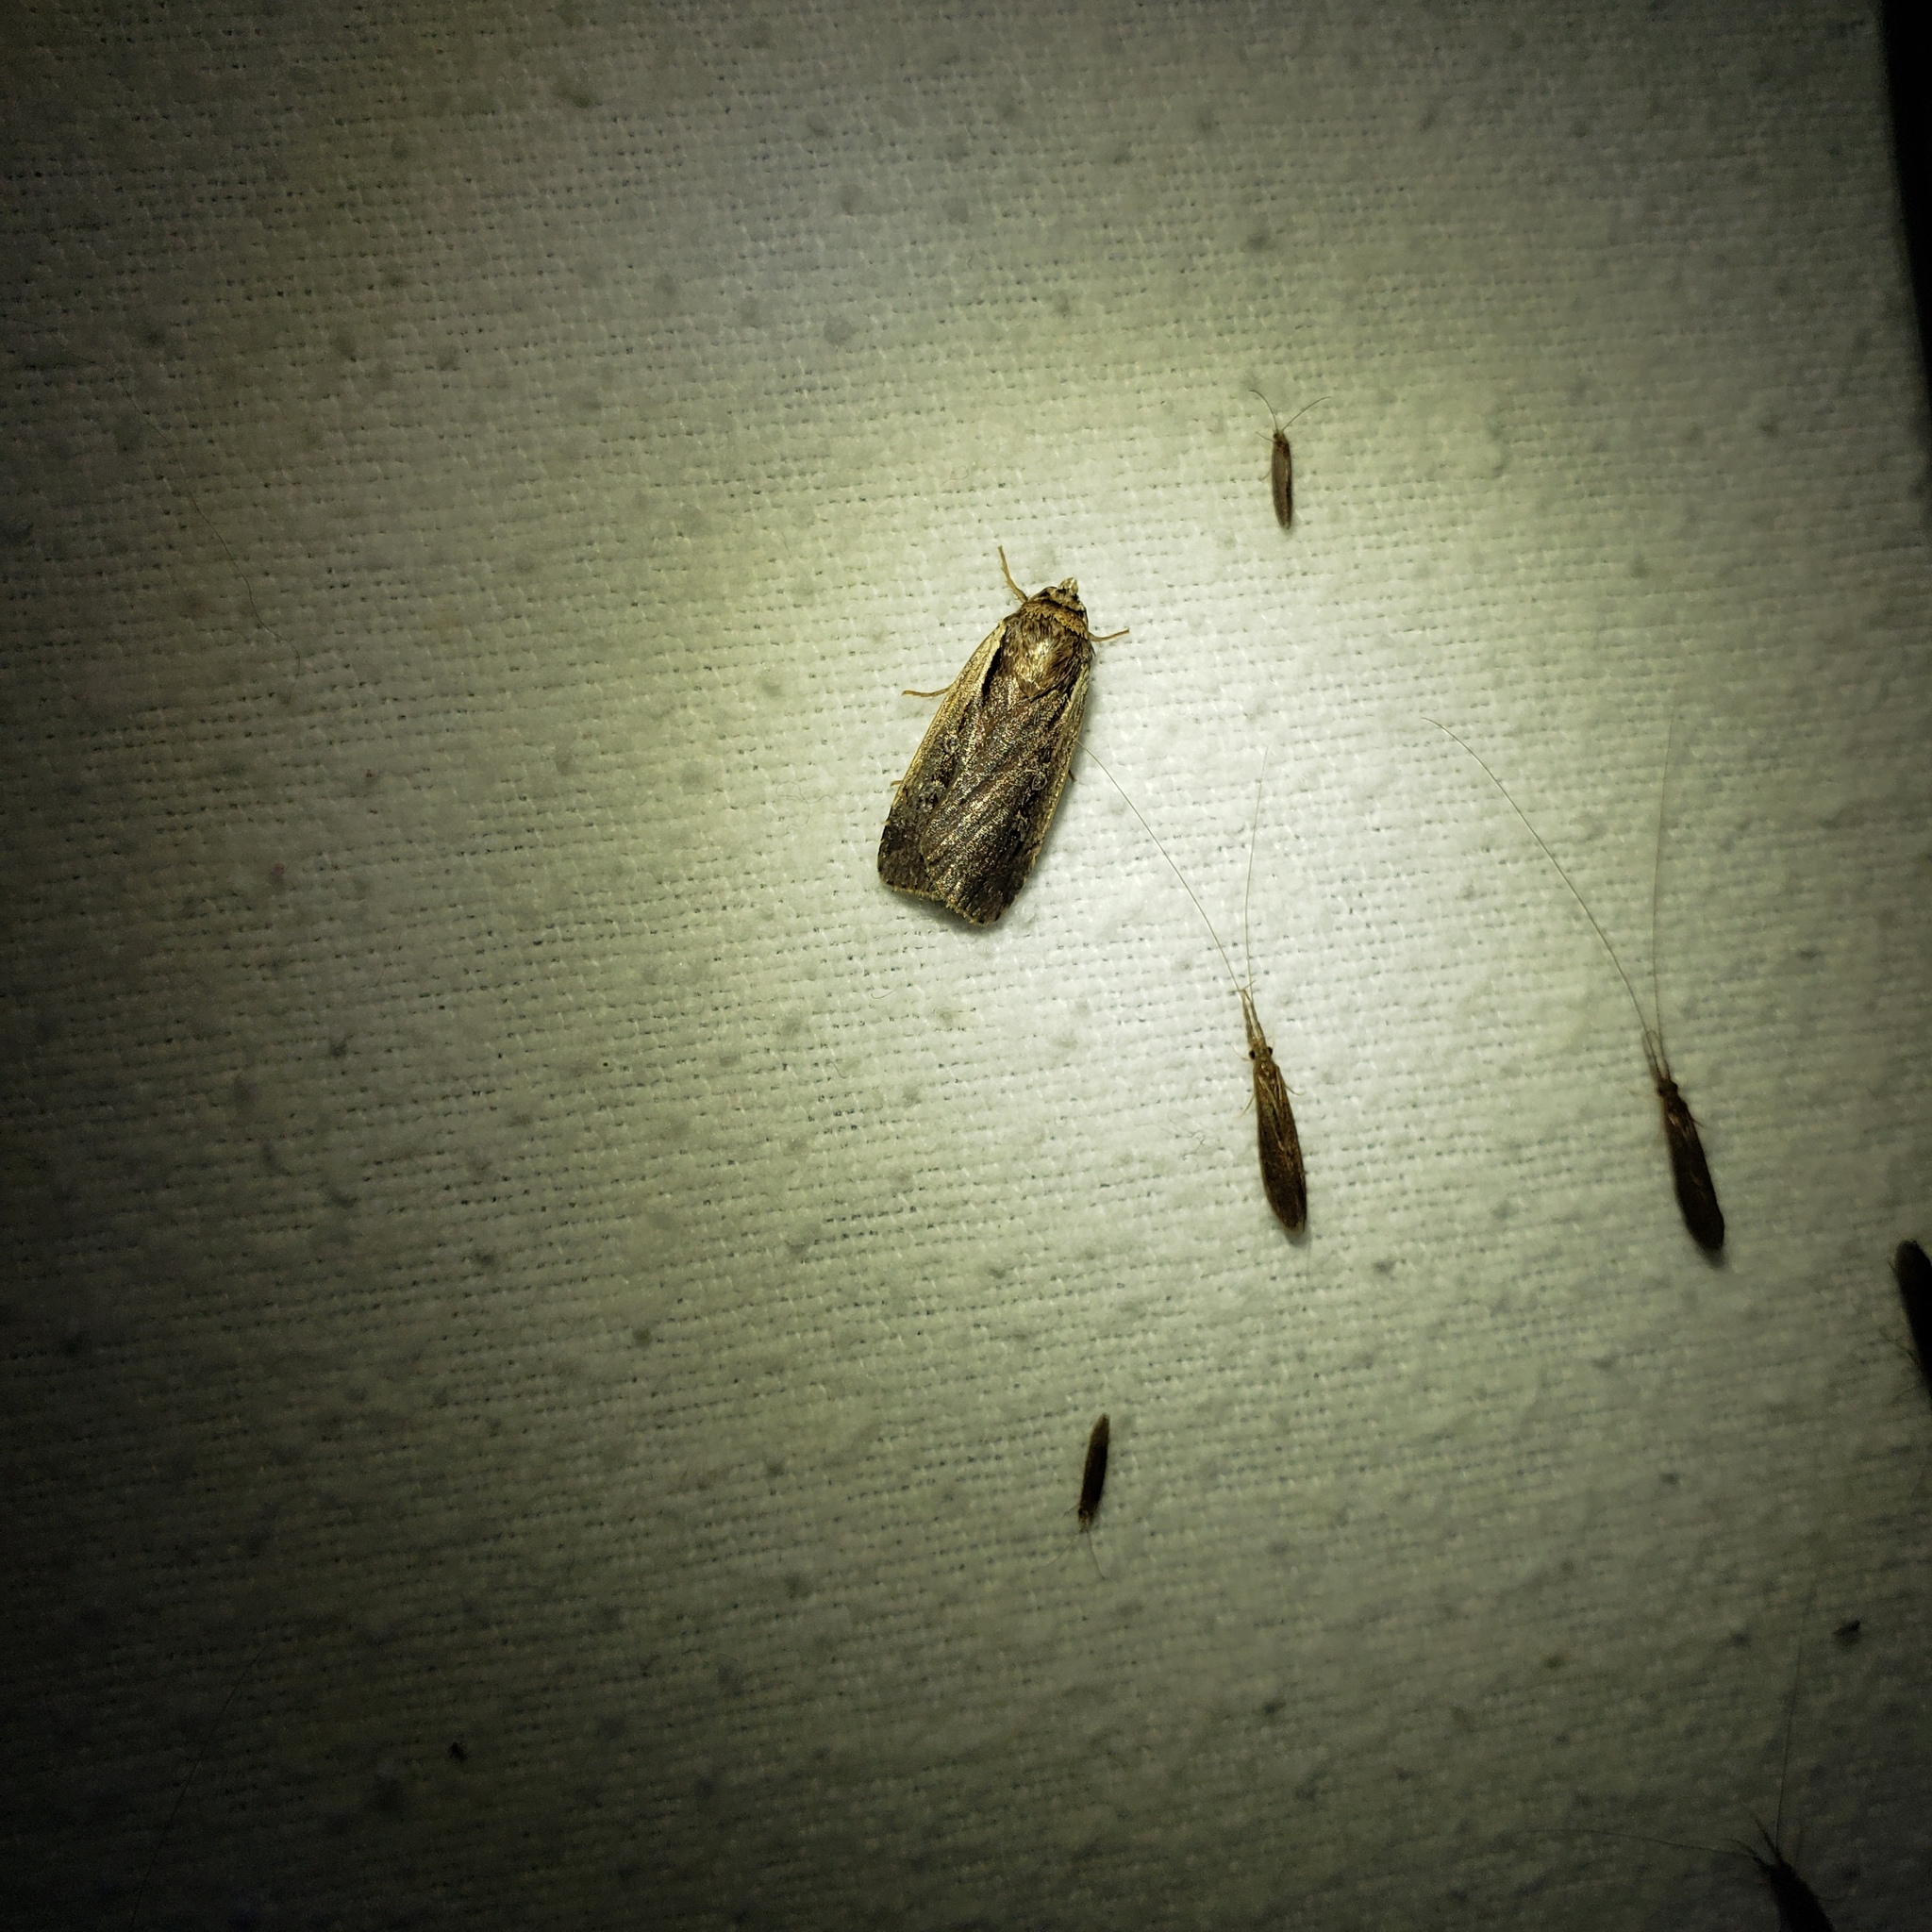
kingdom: Animalia
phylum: Arthropoda
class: Insecta
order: Lepidoptera
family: Noctuidae
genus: Ochropleura
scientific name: Ochropleura implecta
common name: Flame-shouldered dart
